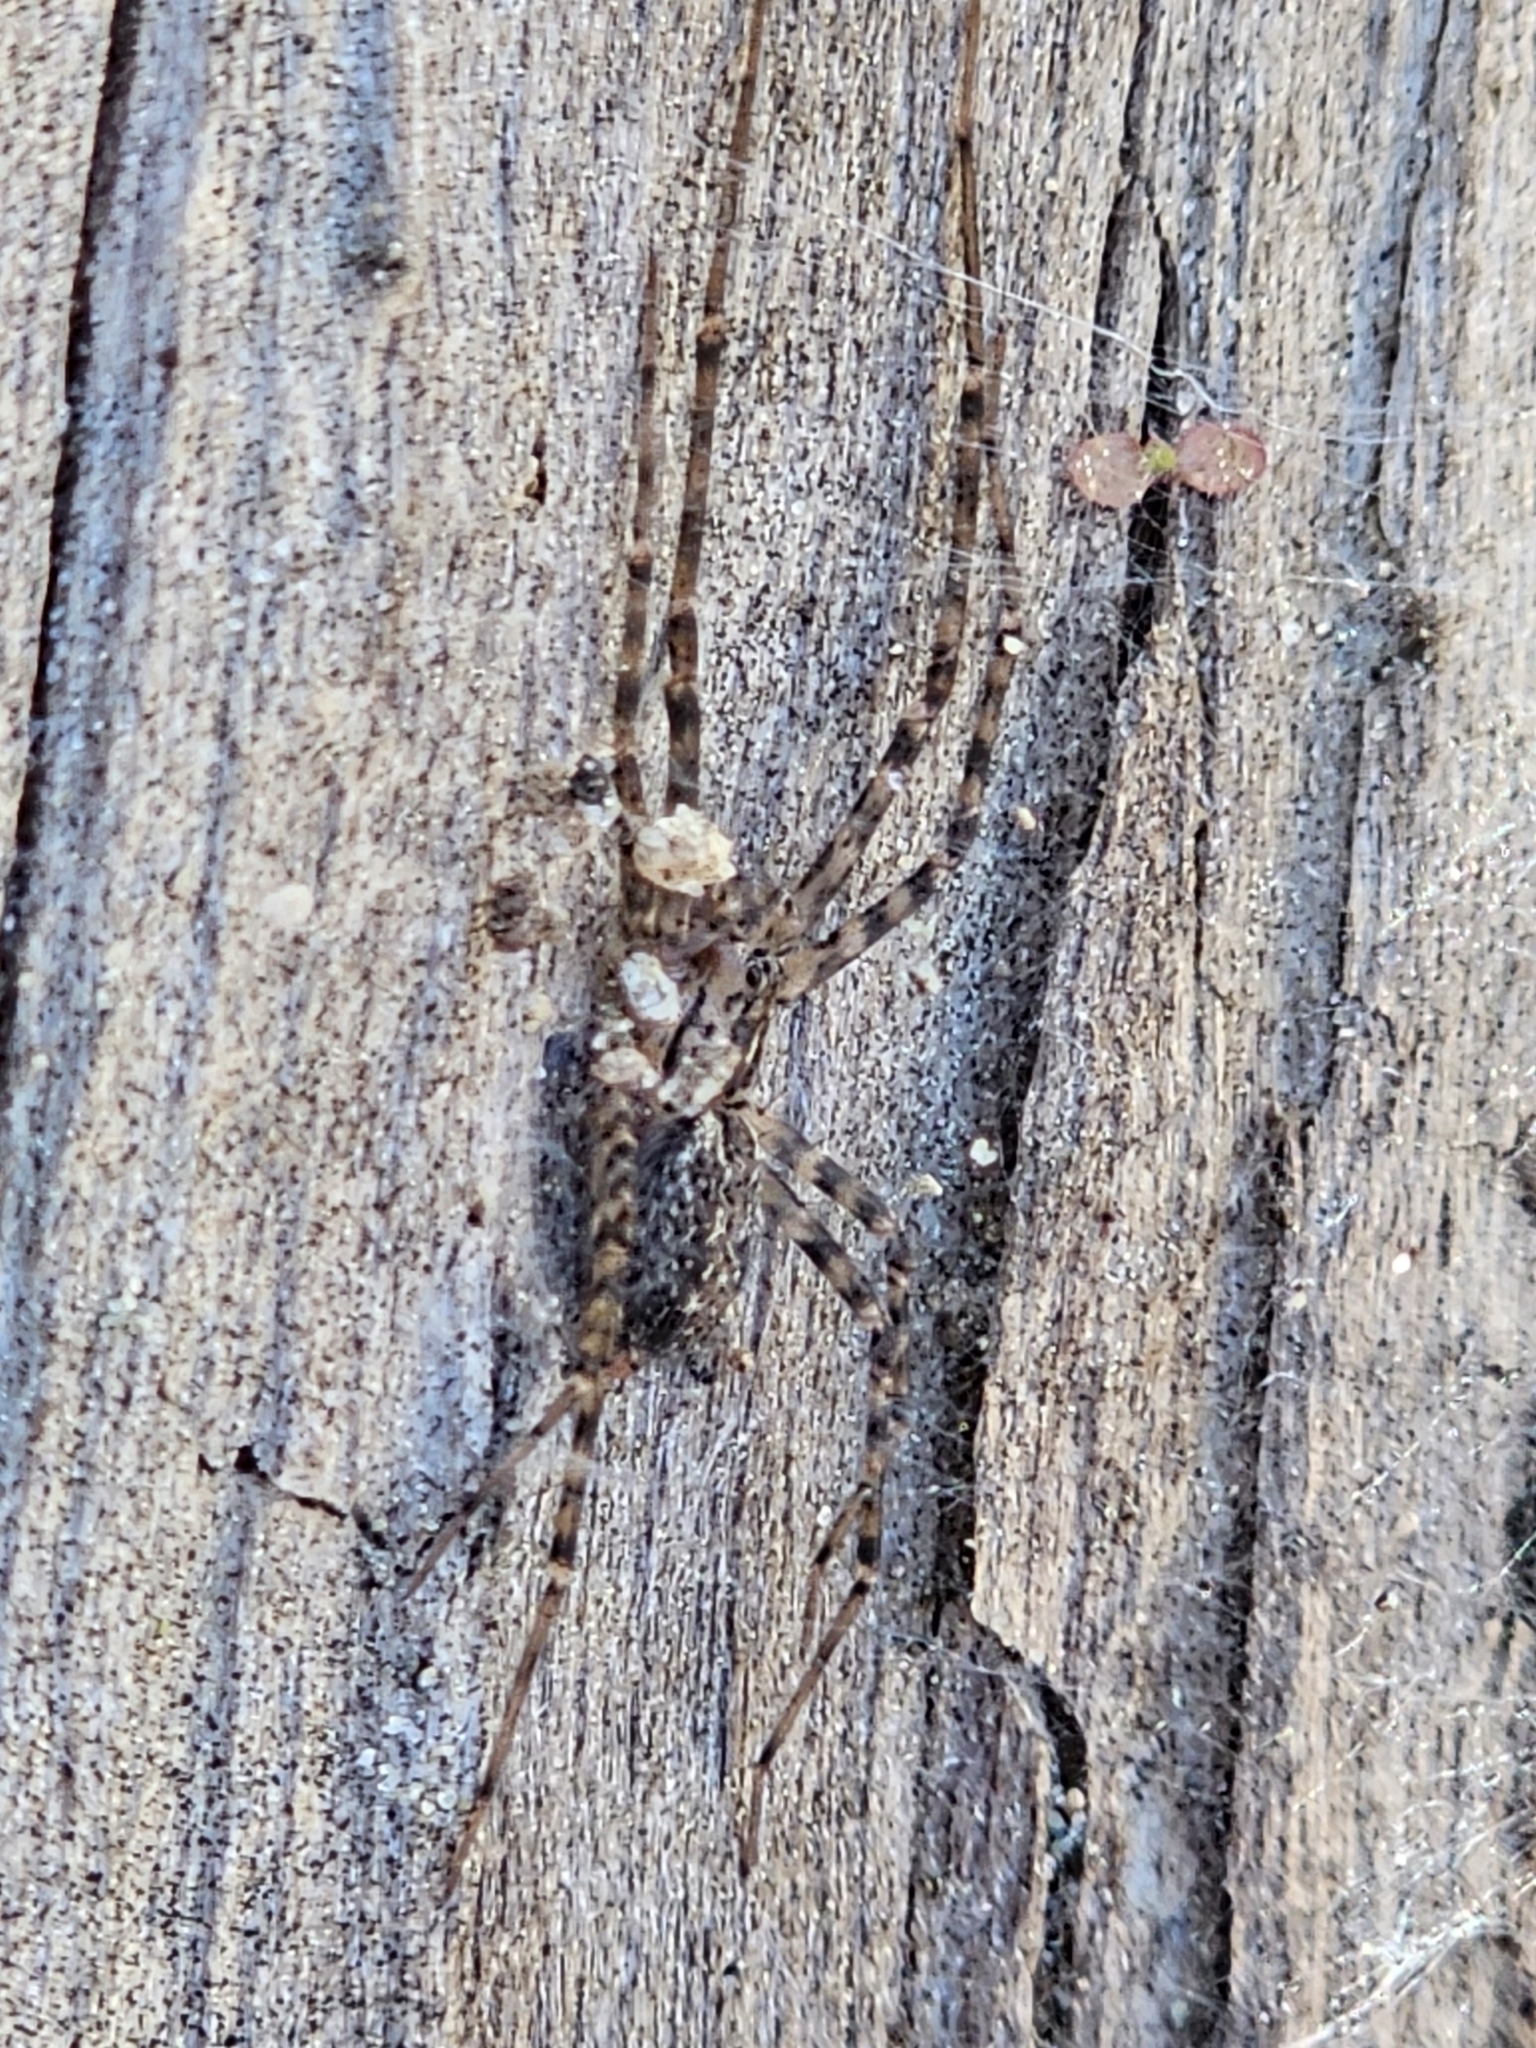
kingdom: Animalia
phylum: Arthropoda
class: Arachnida
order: Araneae
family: Stiphidiidae
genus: Stiphidion
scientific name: Stiphidion facetum
